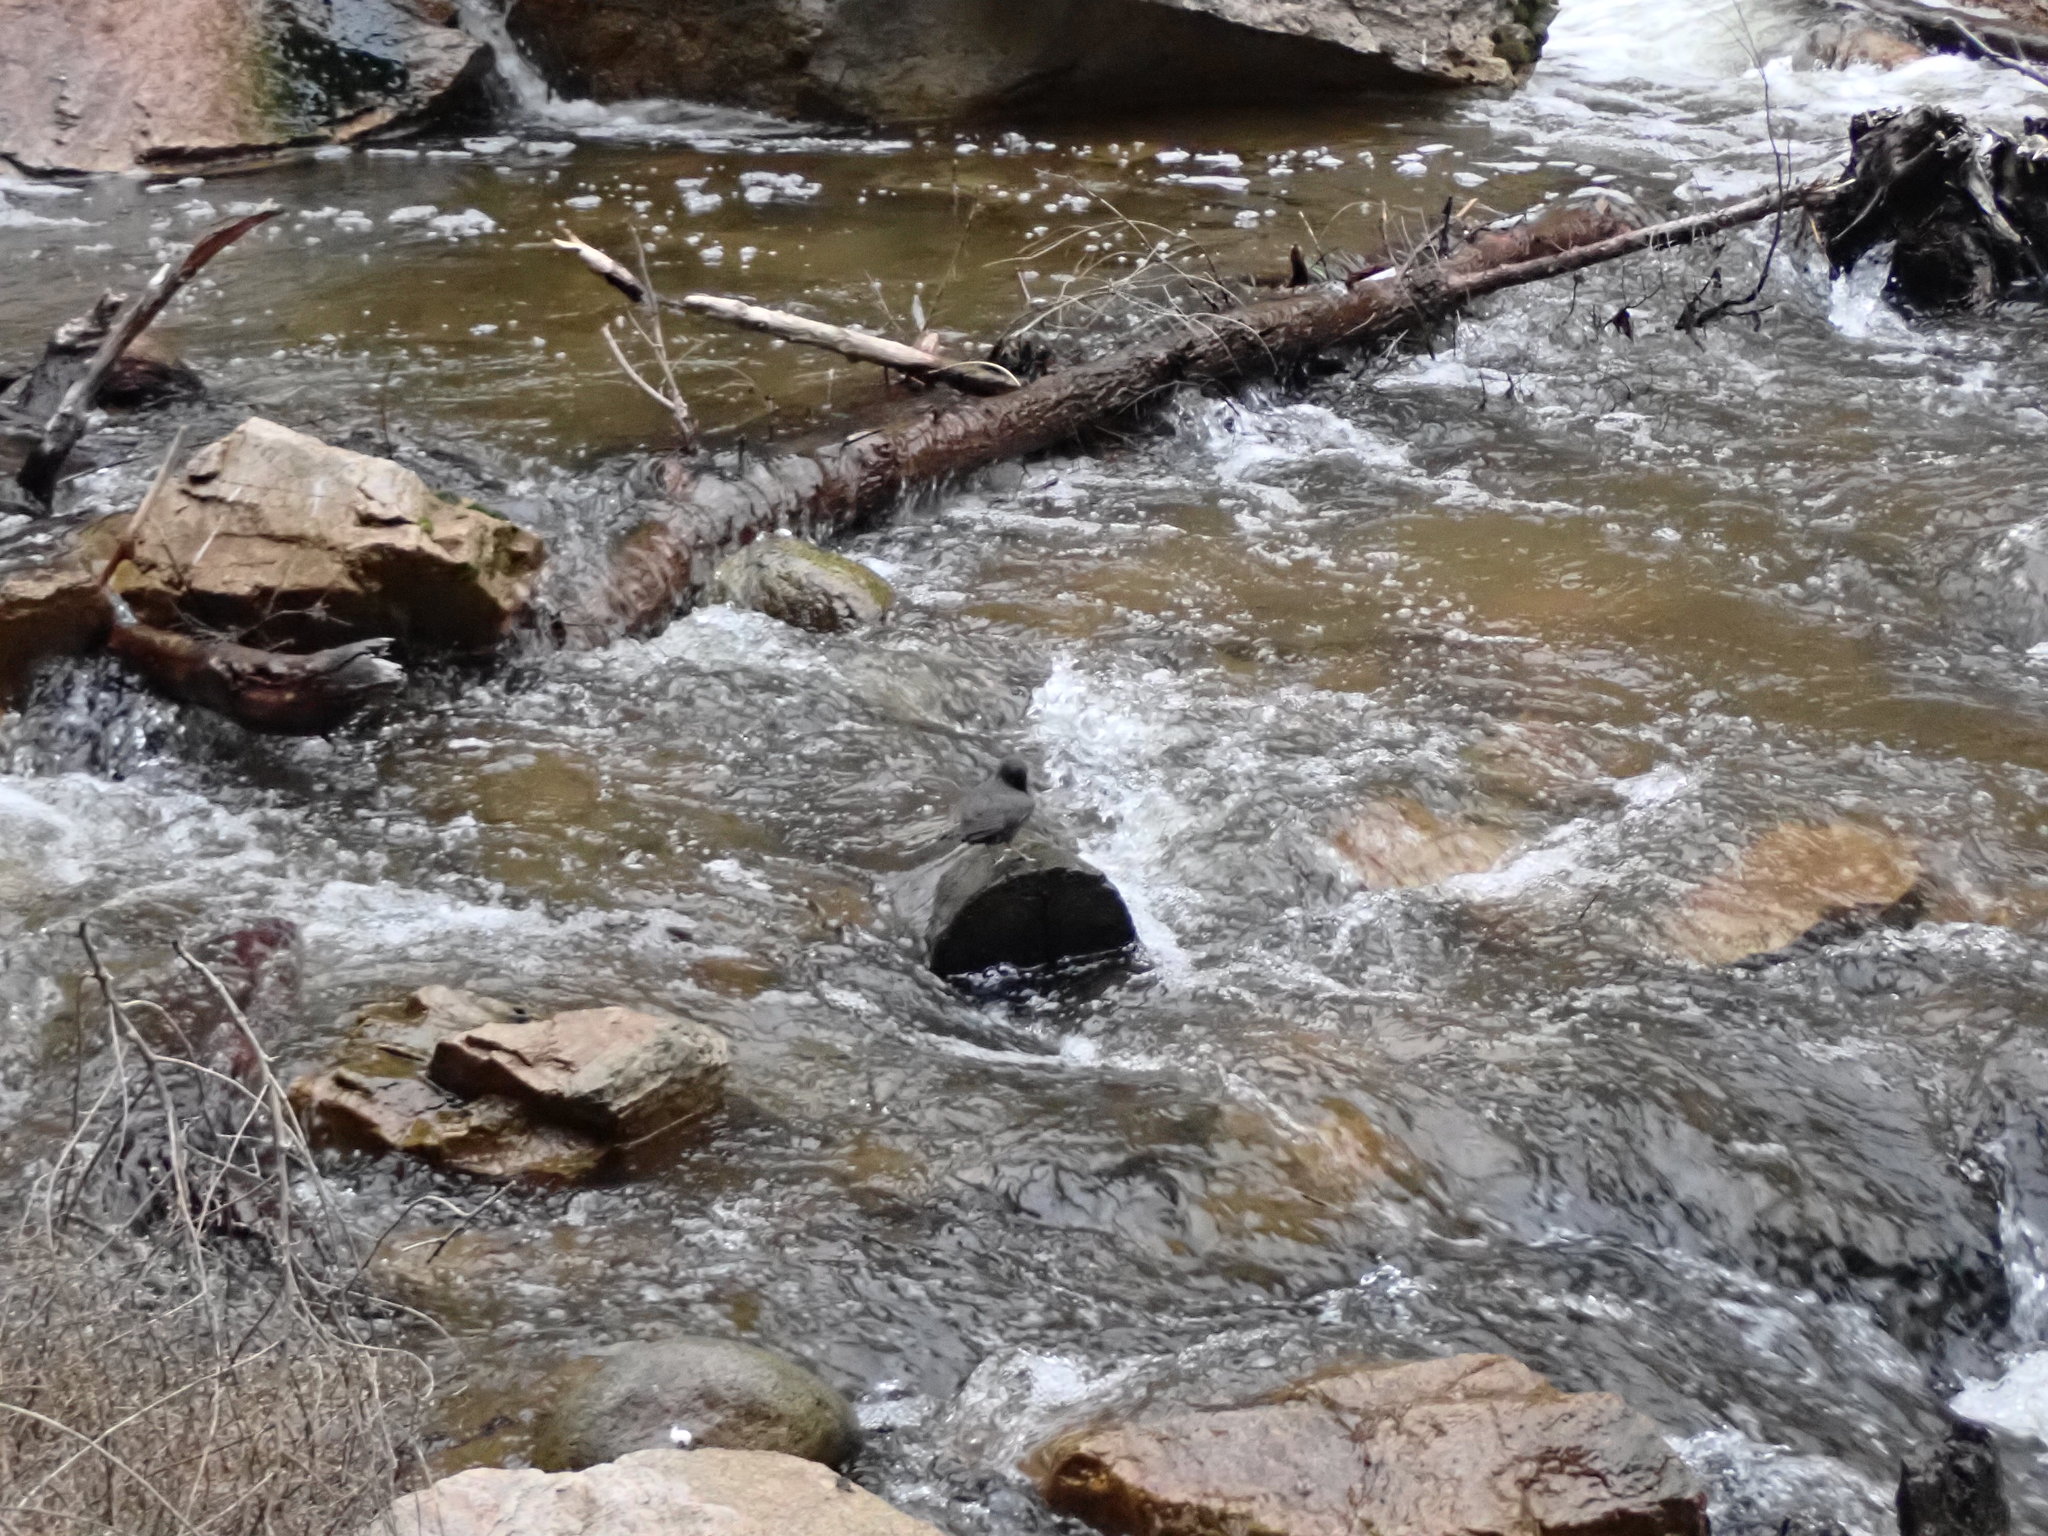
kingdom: Animalia
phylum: Chordata
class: Aves
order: Passeriformes
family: Cinclidae
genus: Cinclus
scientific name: Cinclus mexicanus
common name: American dipper
